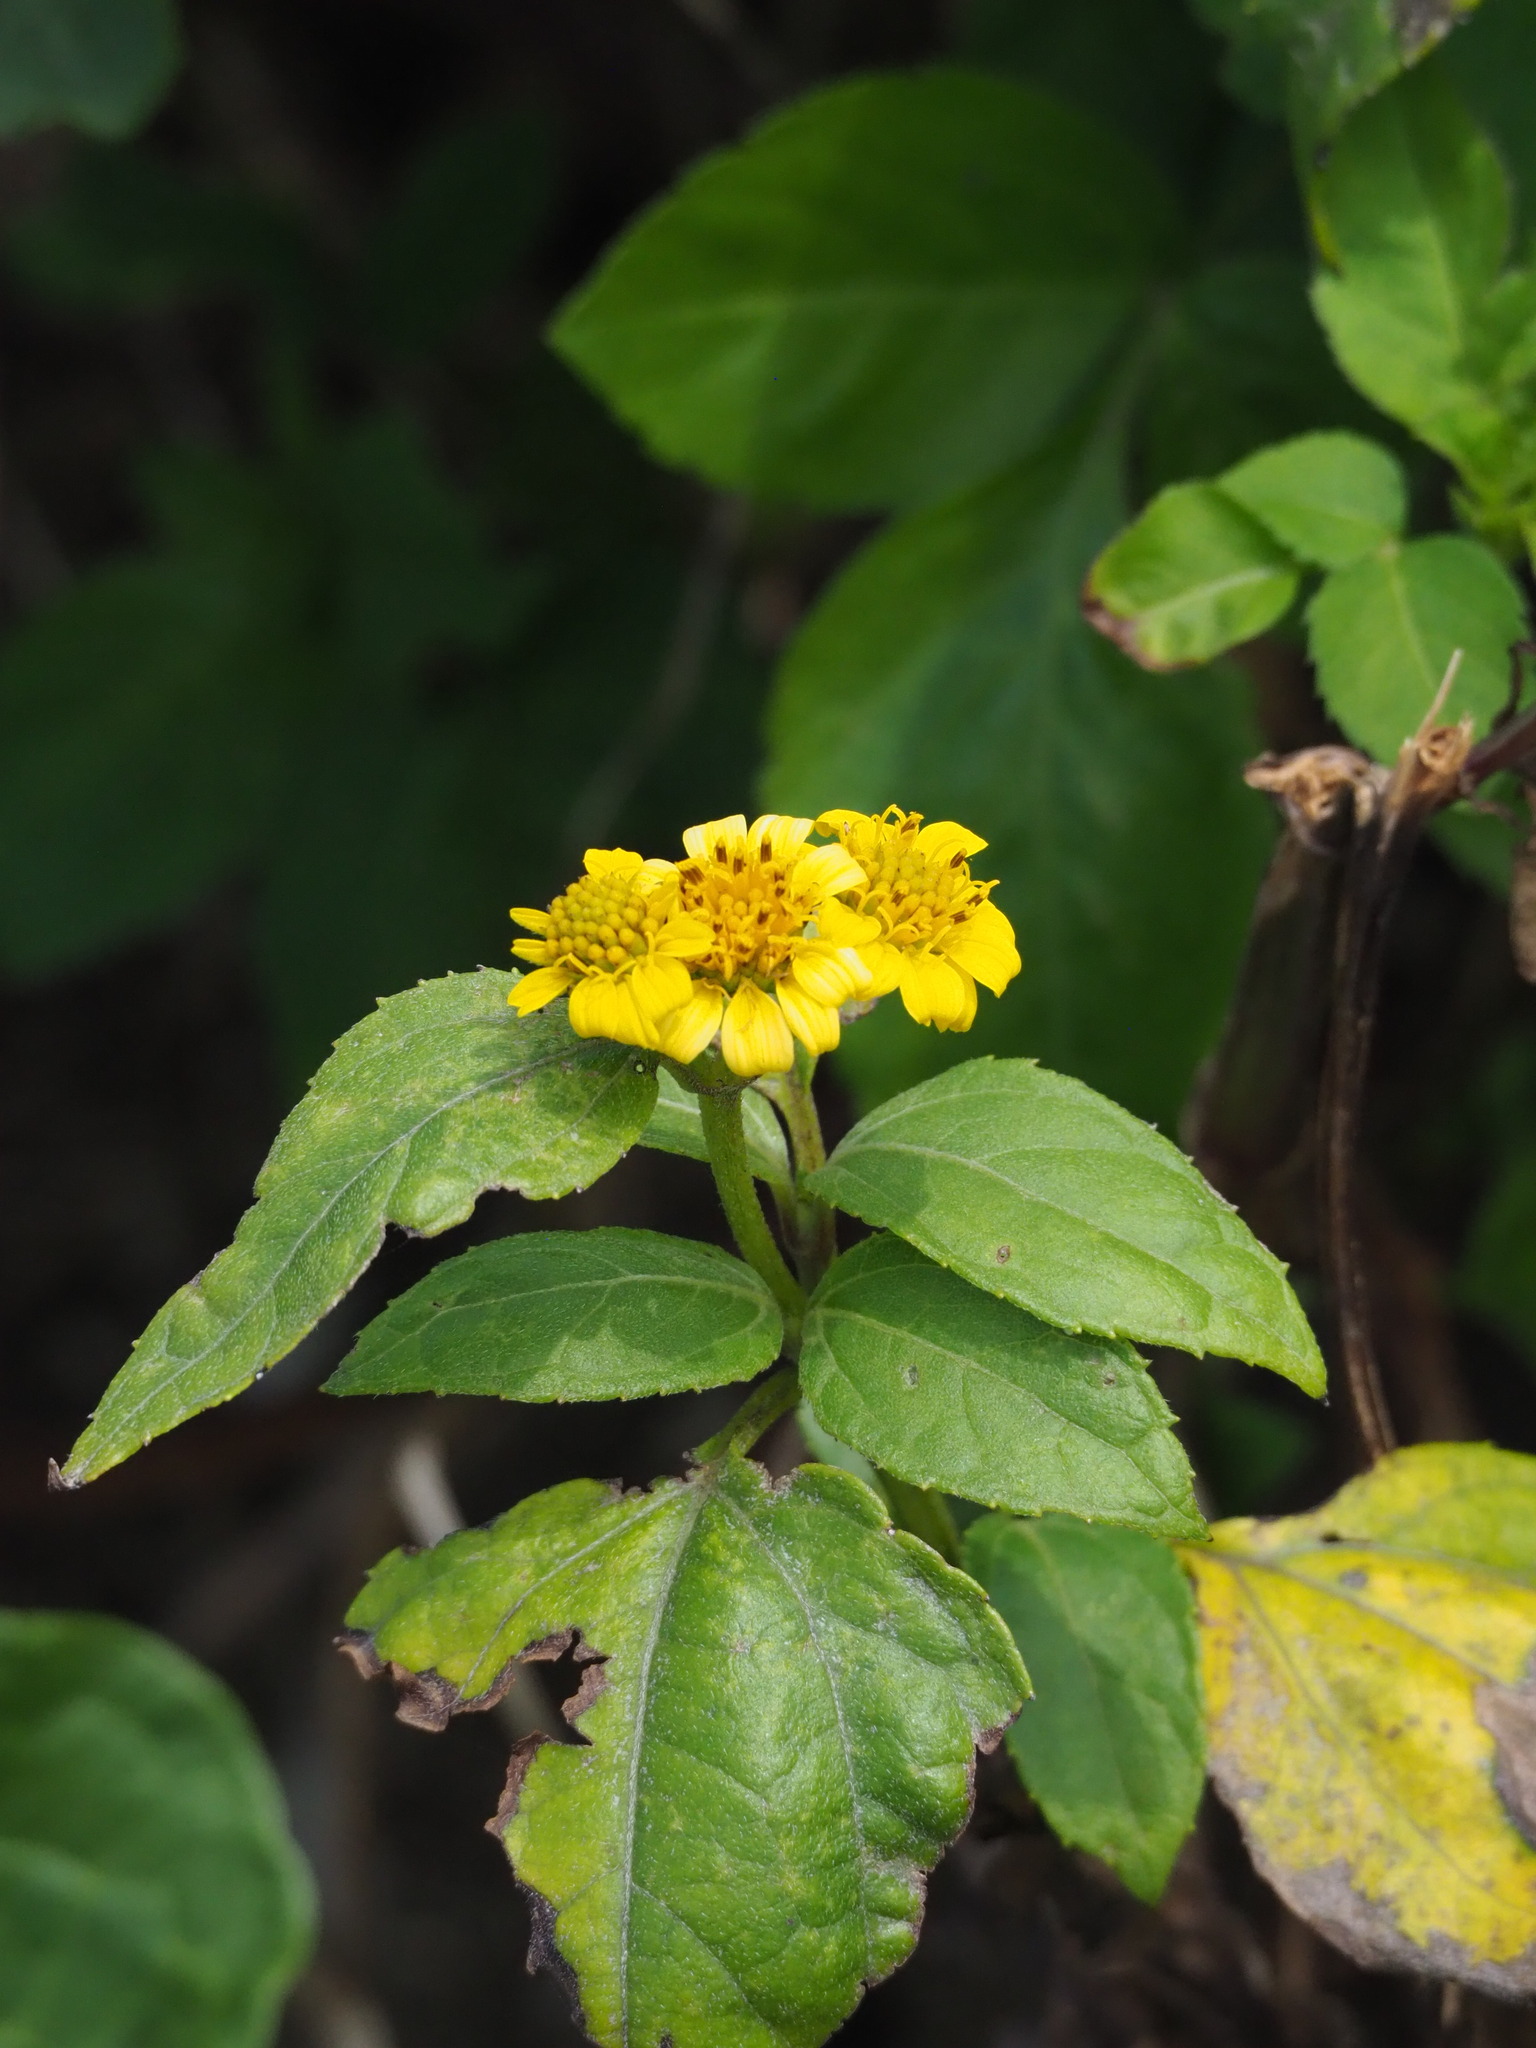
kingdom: Plantae
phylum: Tracheophyta
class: Magnoliopsida
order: Asterales
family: Asteraceae
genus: Wollastonia
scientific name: Wollastonia biflora
